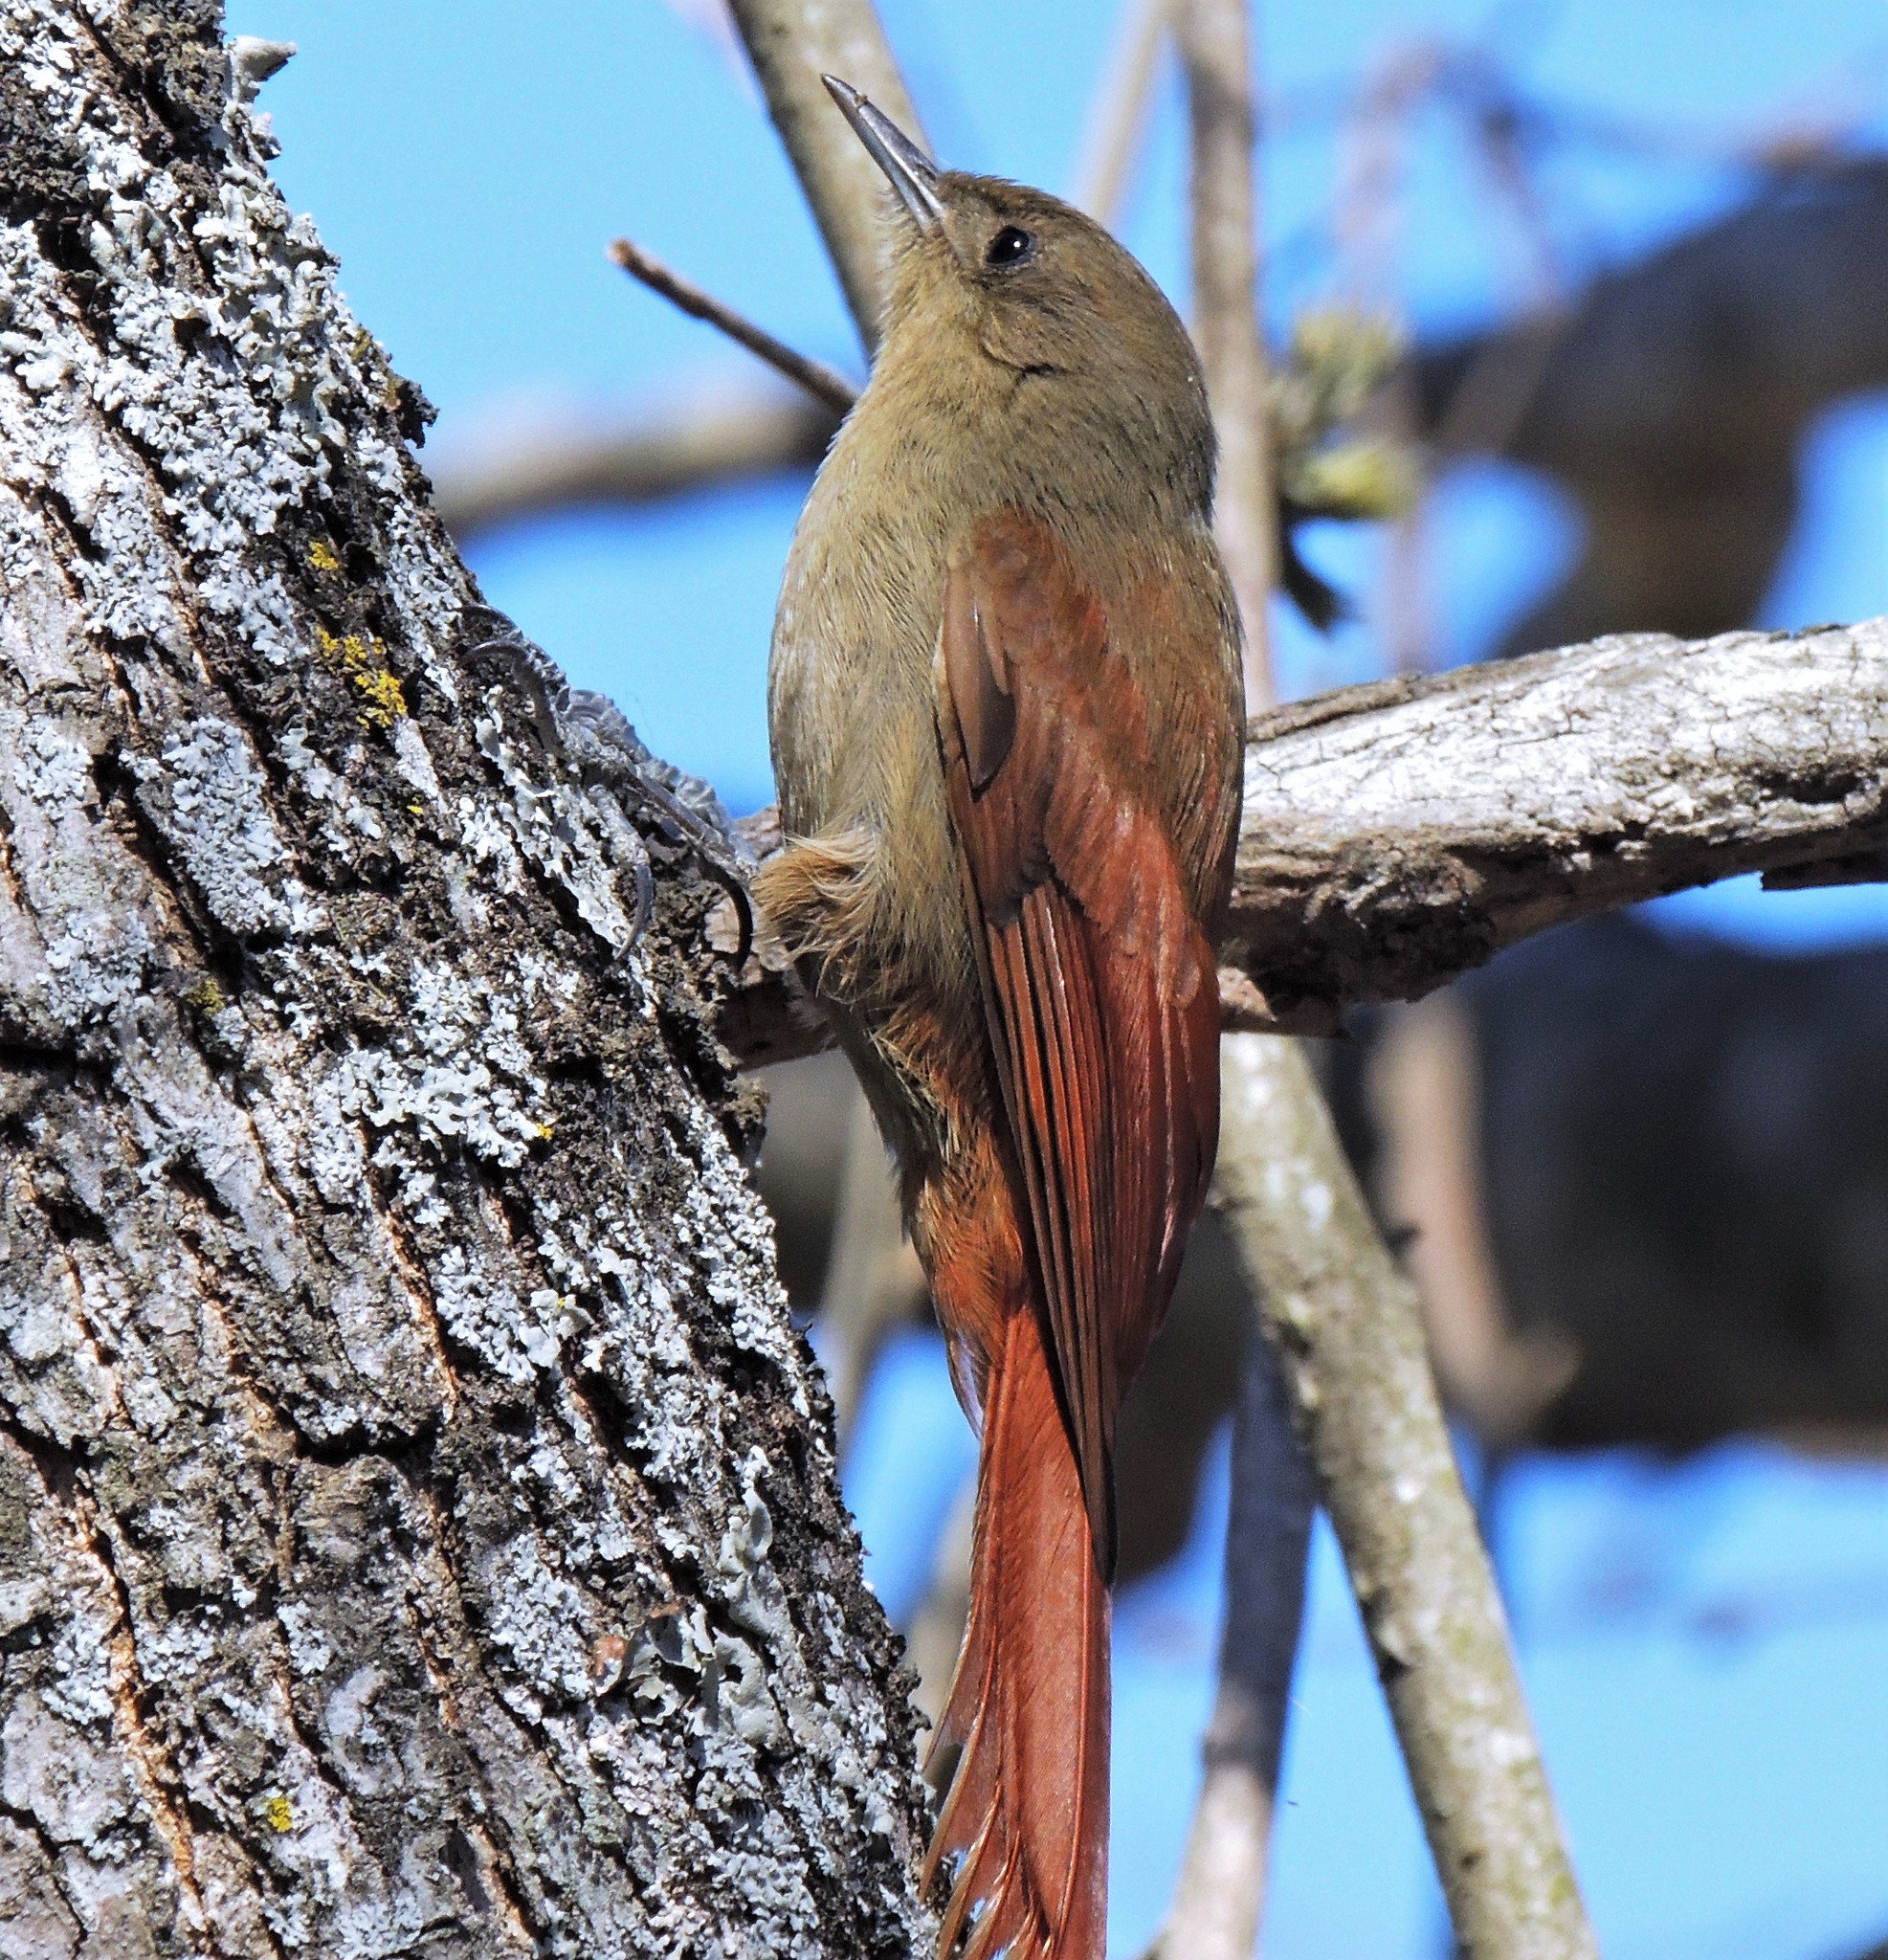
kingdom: Animalia
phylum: Chordata
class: Aves
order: Passeriformes
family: Furnariidae
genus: Sittasomus
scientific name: Sittasomus griseicapillus
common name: Olivaceous woodcreeper
